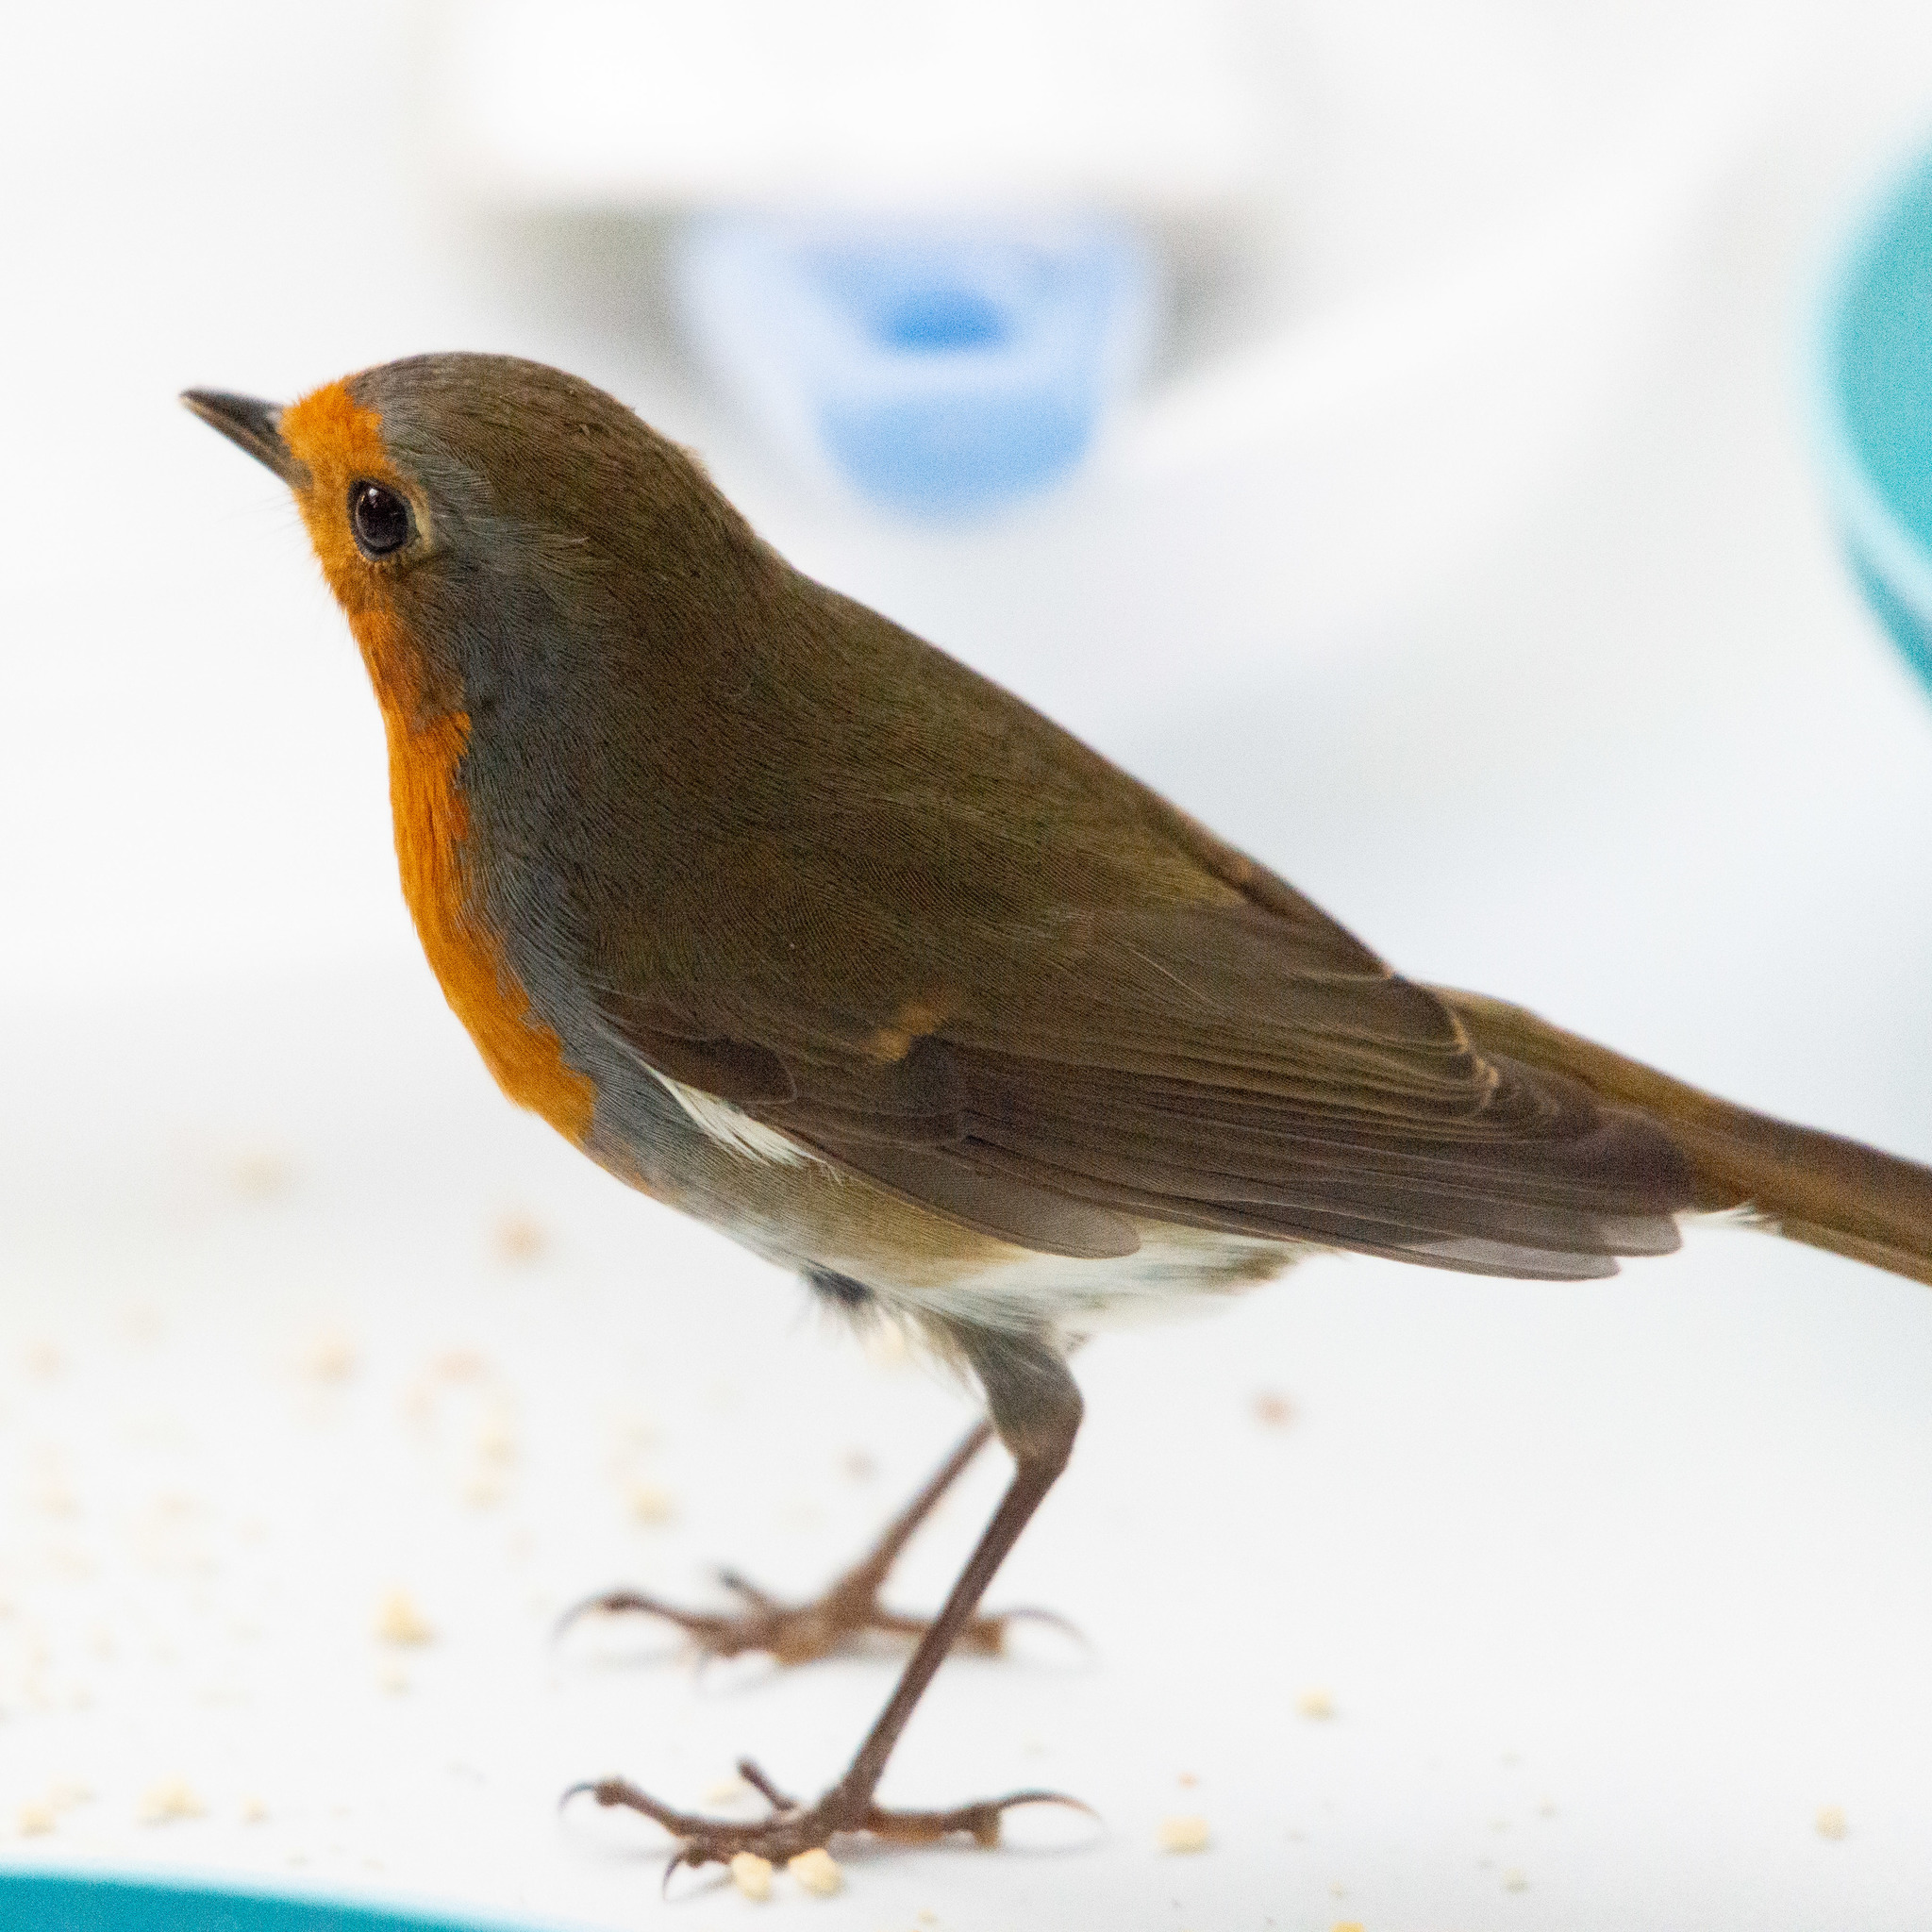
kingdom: Animalia
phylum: Chordata
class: Aves
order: Passeriformes
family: Muscicapidae
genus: Erithacus
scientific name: Erithacus rubecula
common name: European robin
